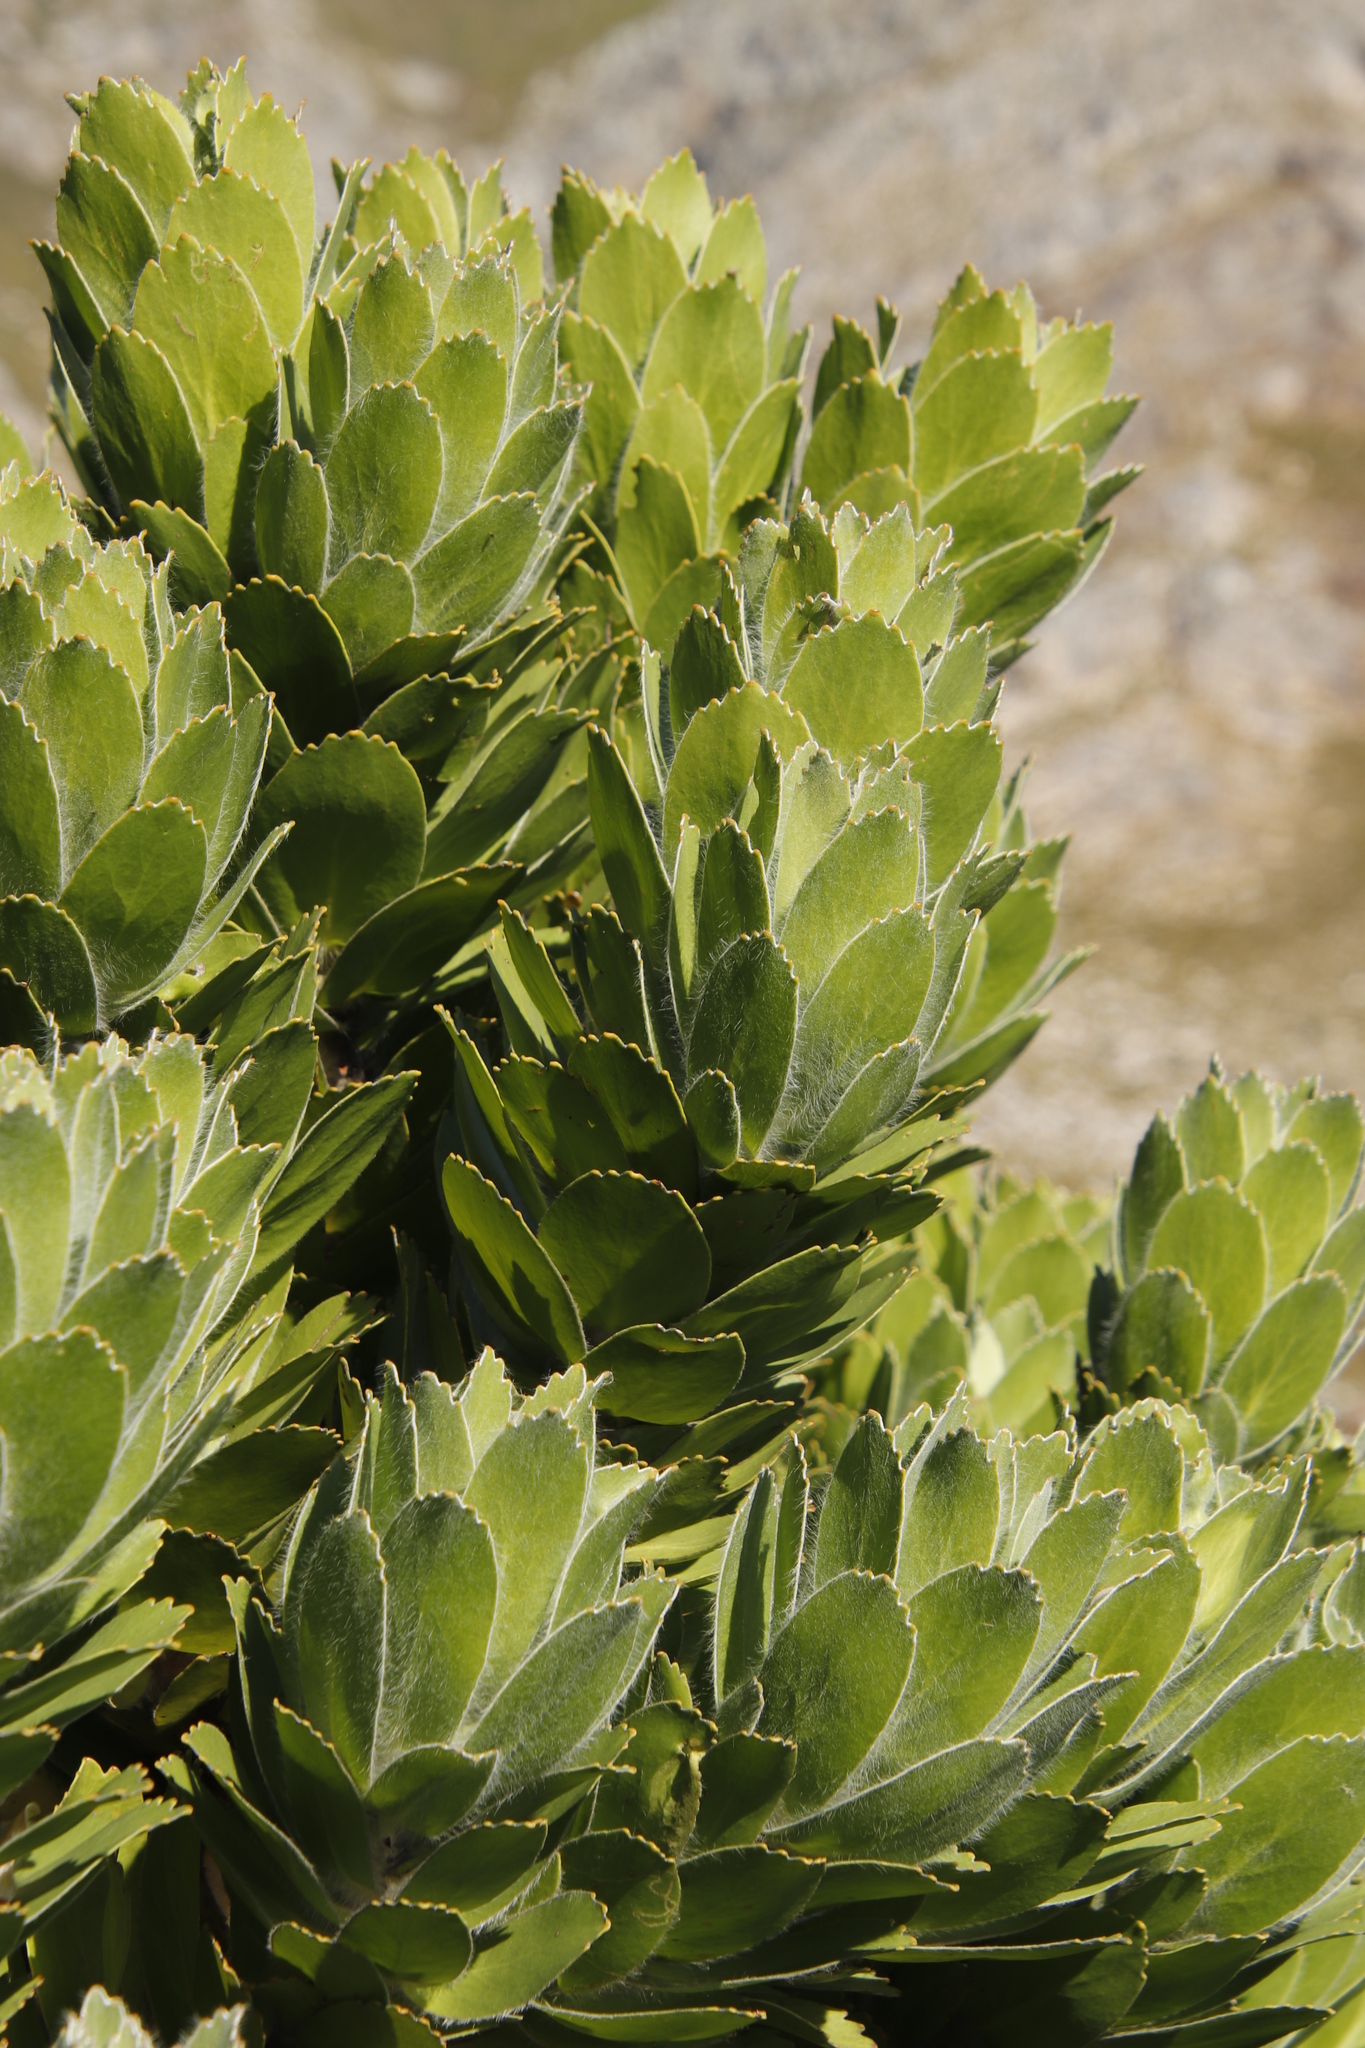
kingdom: Plantae
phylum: Tracheophyta
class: Magnoliopsida
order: Proteales
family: Proteaceae
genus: Leucospermum
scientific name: Leucospermum conocarpodendron
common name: Tree pincushion
